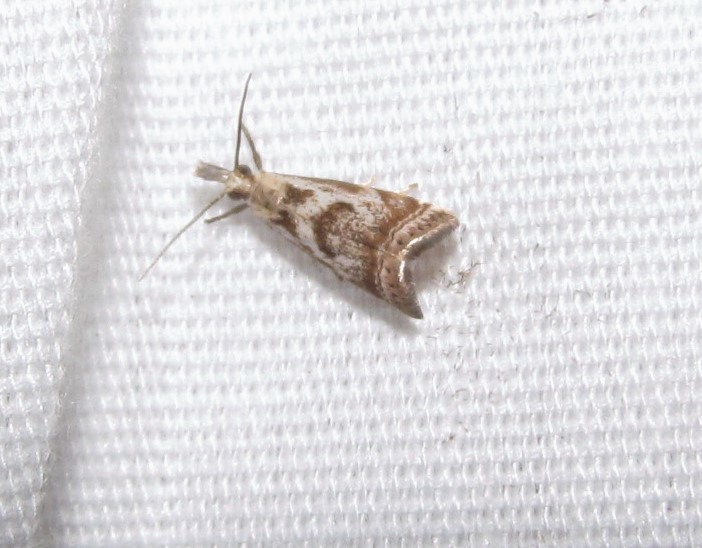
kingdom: Animalia
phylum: Arthropoda
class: Insecta
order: Lepidoptera
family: Crambidae
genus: Microcrambus
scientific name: Microcrambus elegans
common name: Elegant grass-veneer
